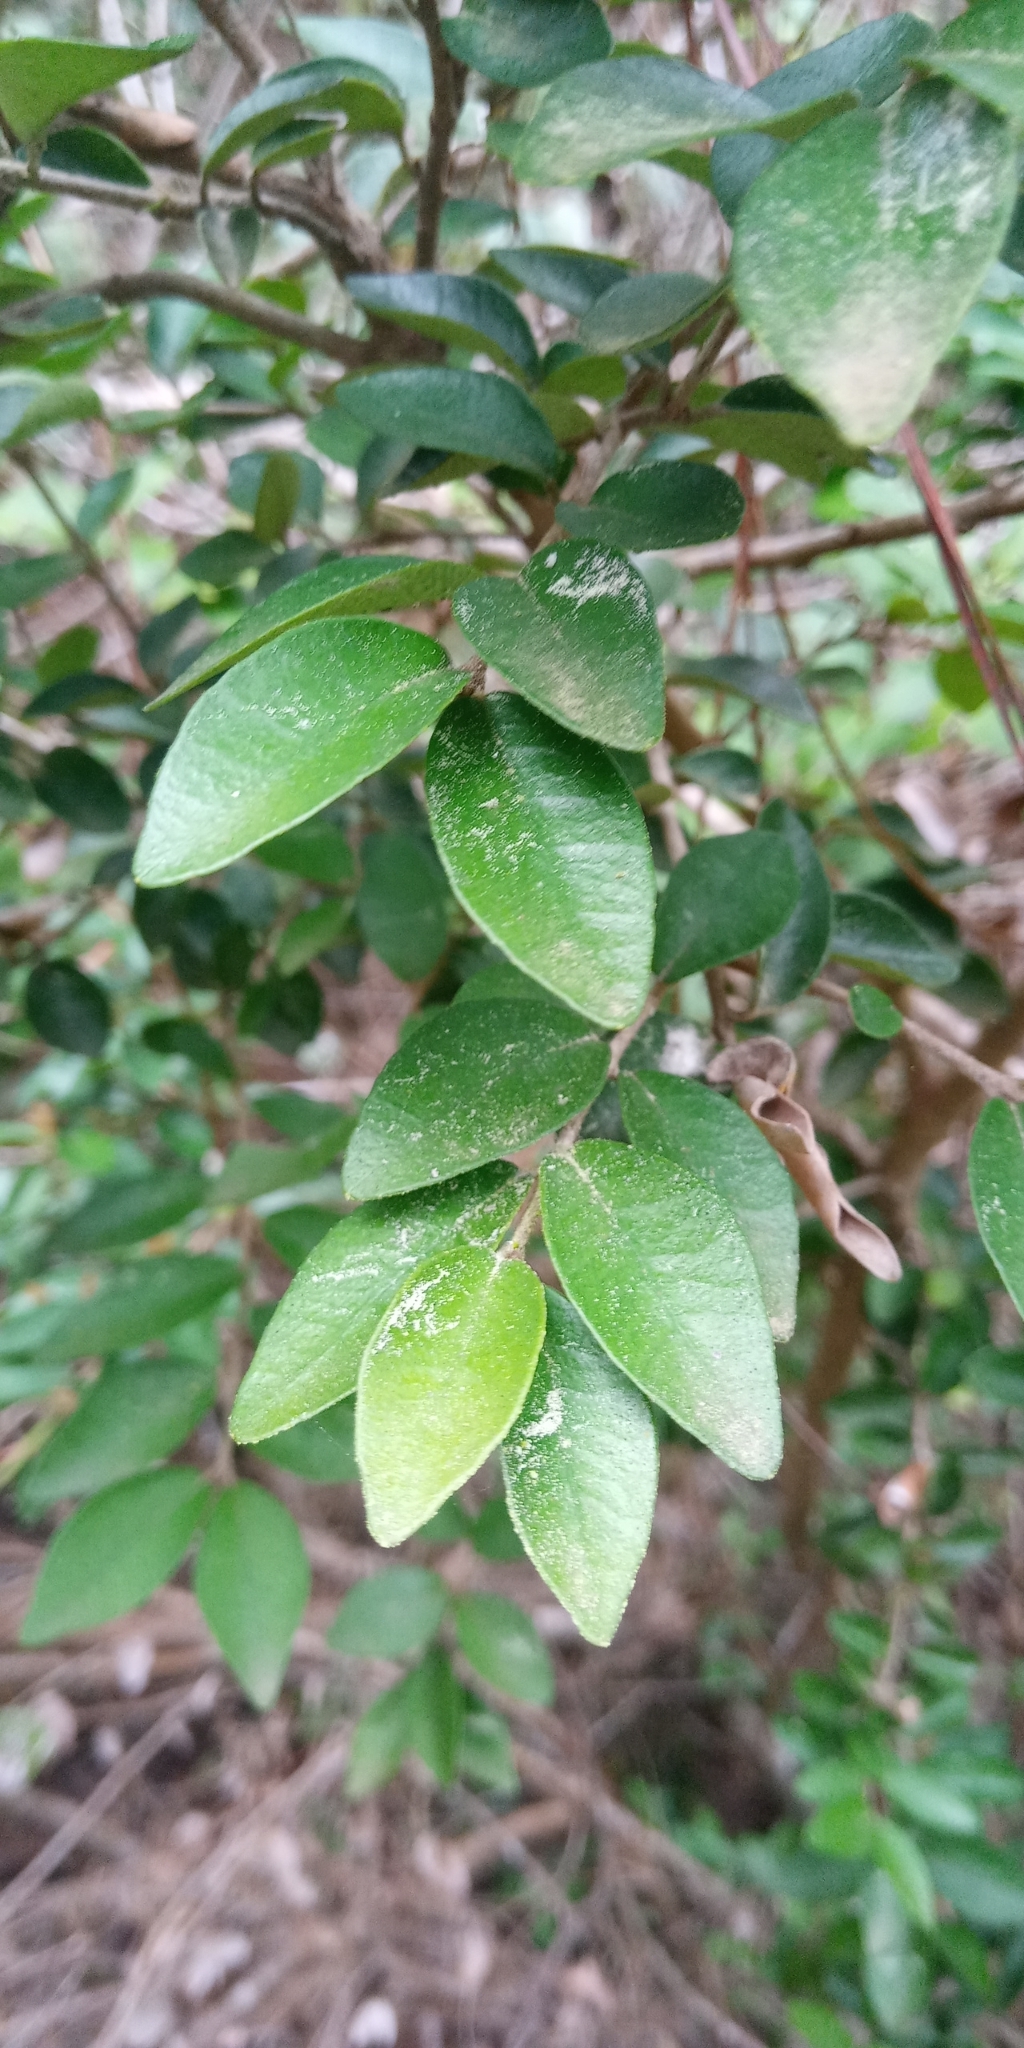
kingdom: Plantae
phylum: Tracheophyta
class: Magnoliopsida
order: Myrtales
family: Myrtaceae
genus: Myrceugenia
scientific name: Myrceugenia obtusa
